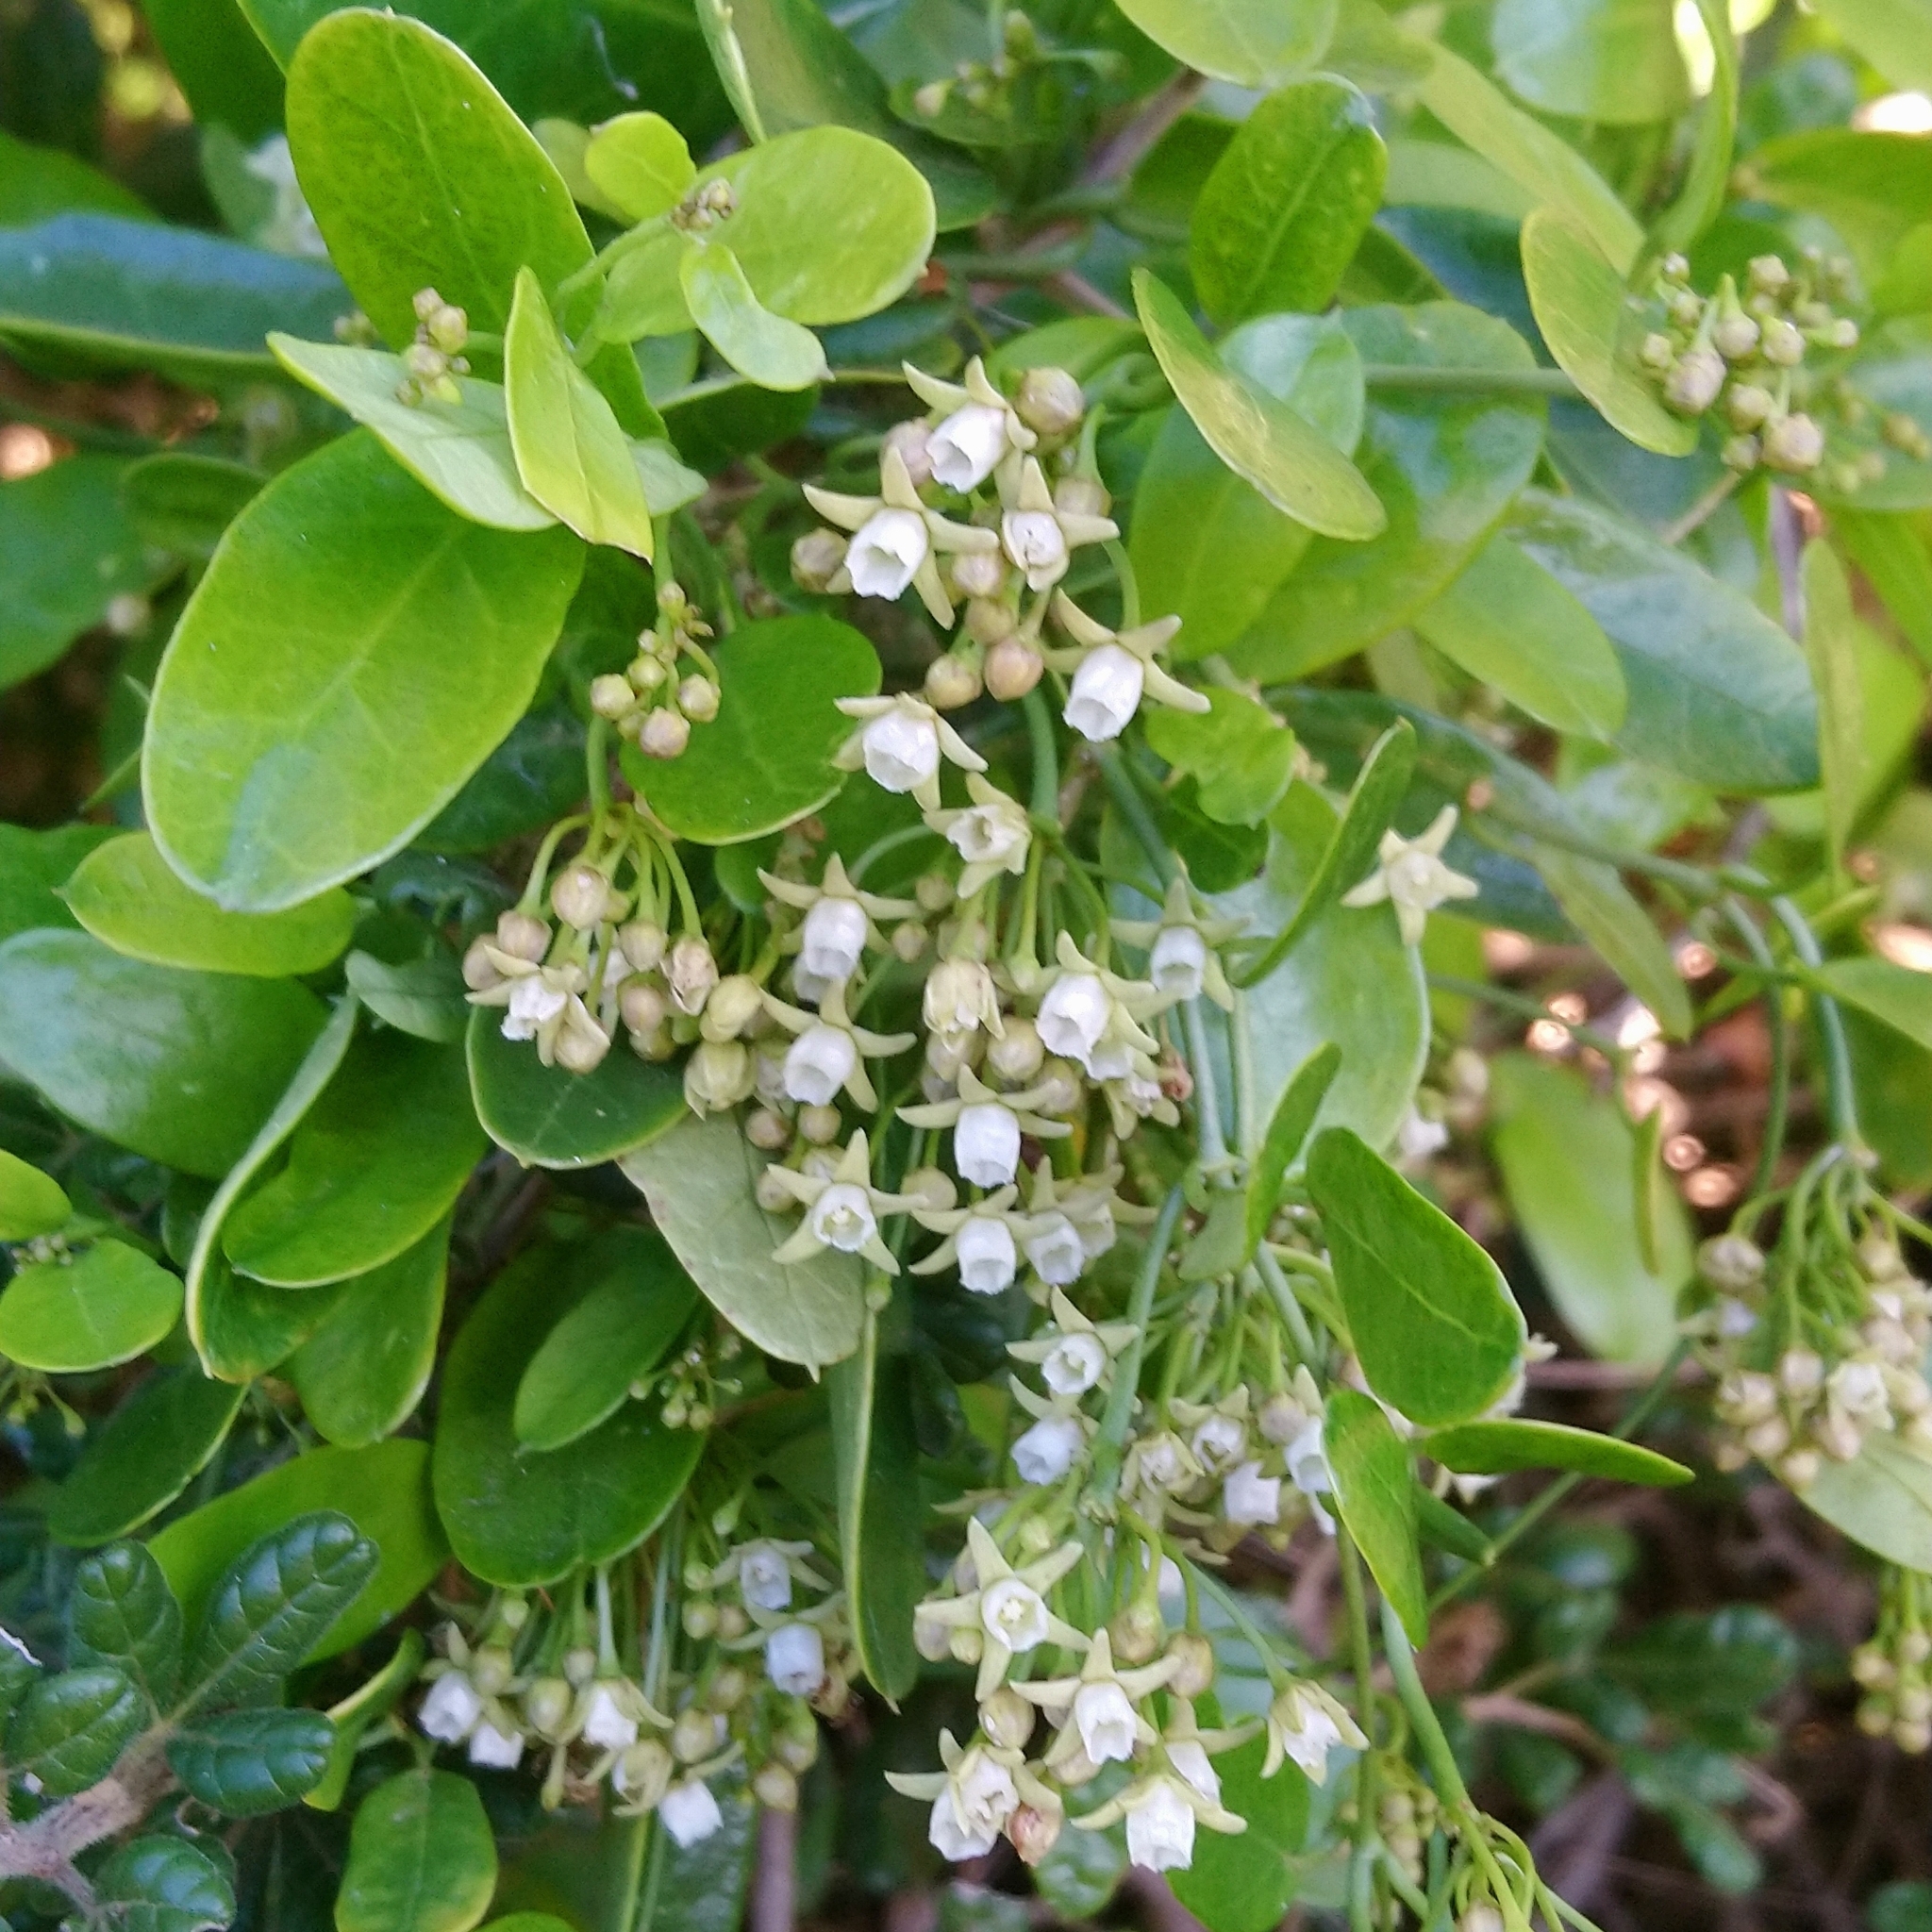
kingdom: Plantae
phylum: Tracheophyta
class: Magnoliopsida
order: Gentianales
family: Apocynaceae
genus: Cynanchum
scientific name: Cynanchum
